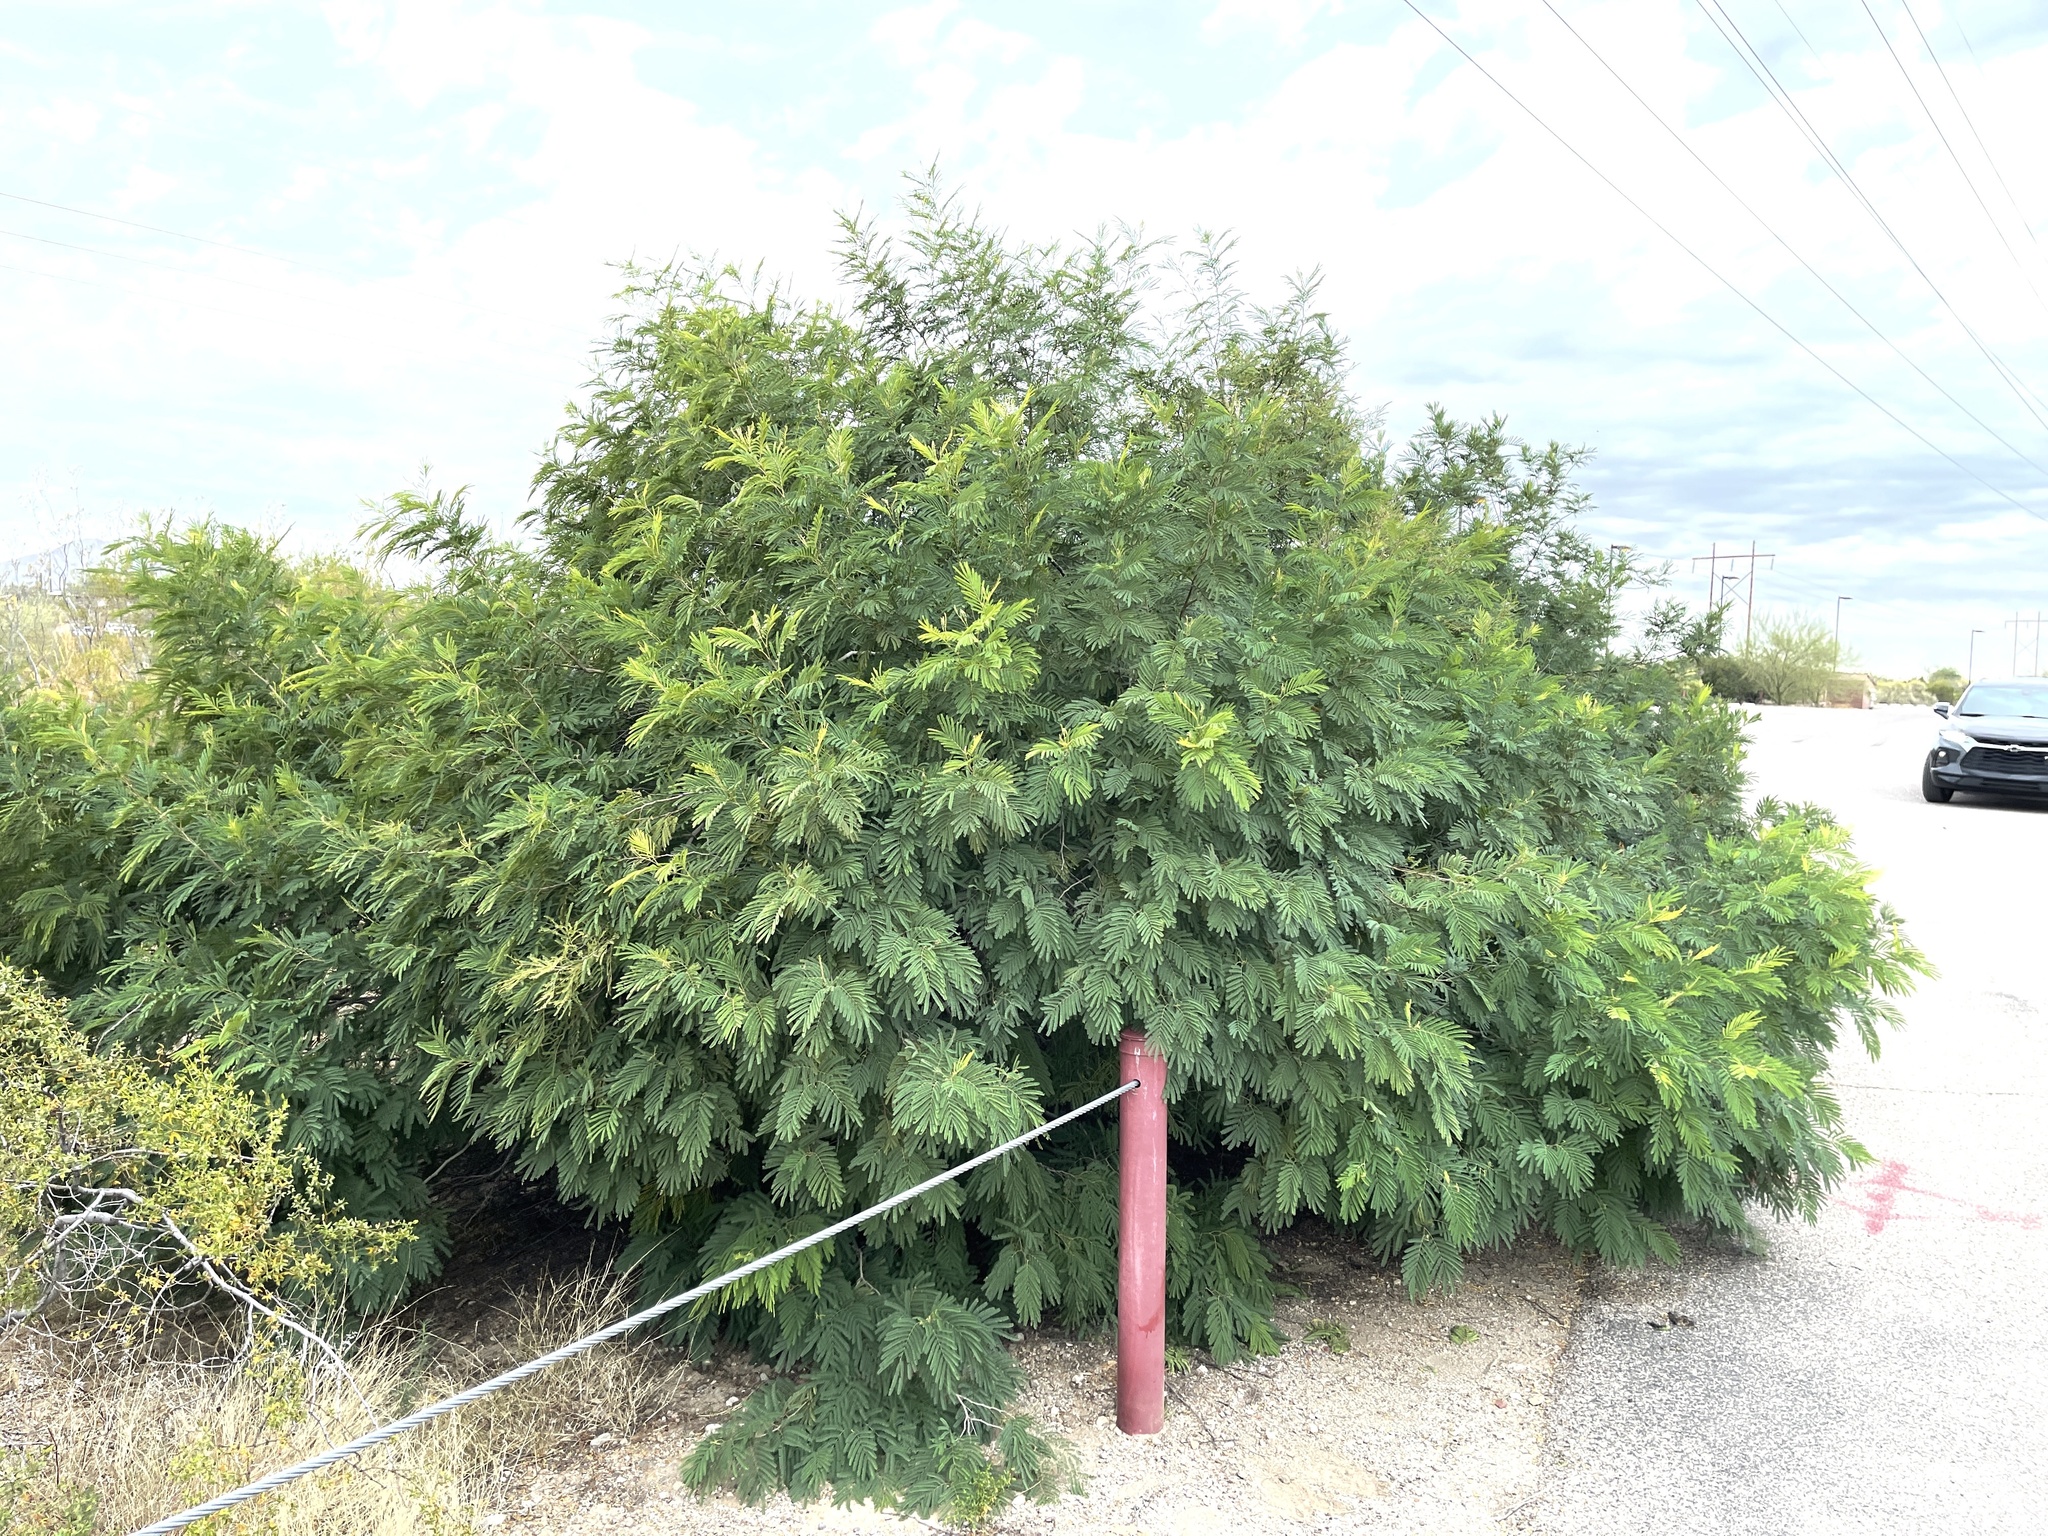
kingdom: Plantae
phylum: Tracheophyta
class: Magnoliopsida
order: Fabales
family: Fabaceae
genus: Acaciella
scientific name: Acaciella angustissima
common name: Prairie acacia
